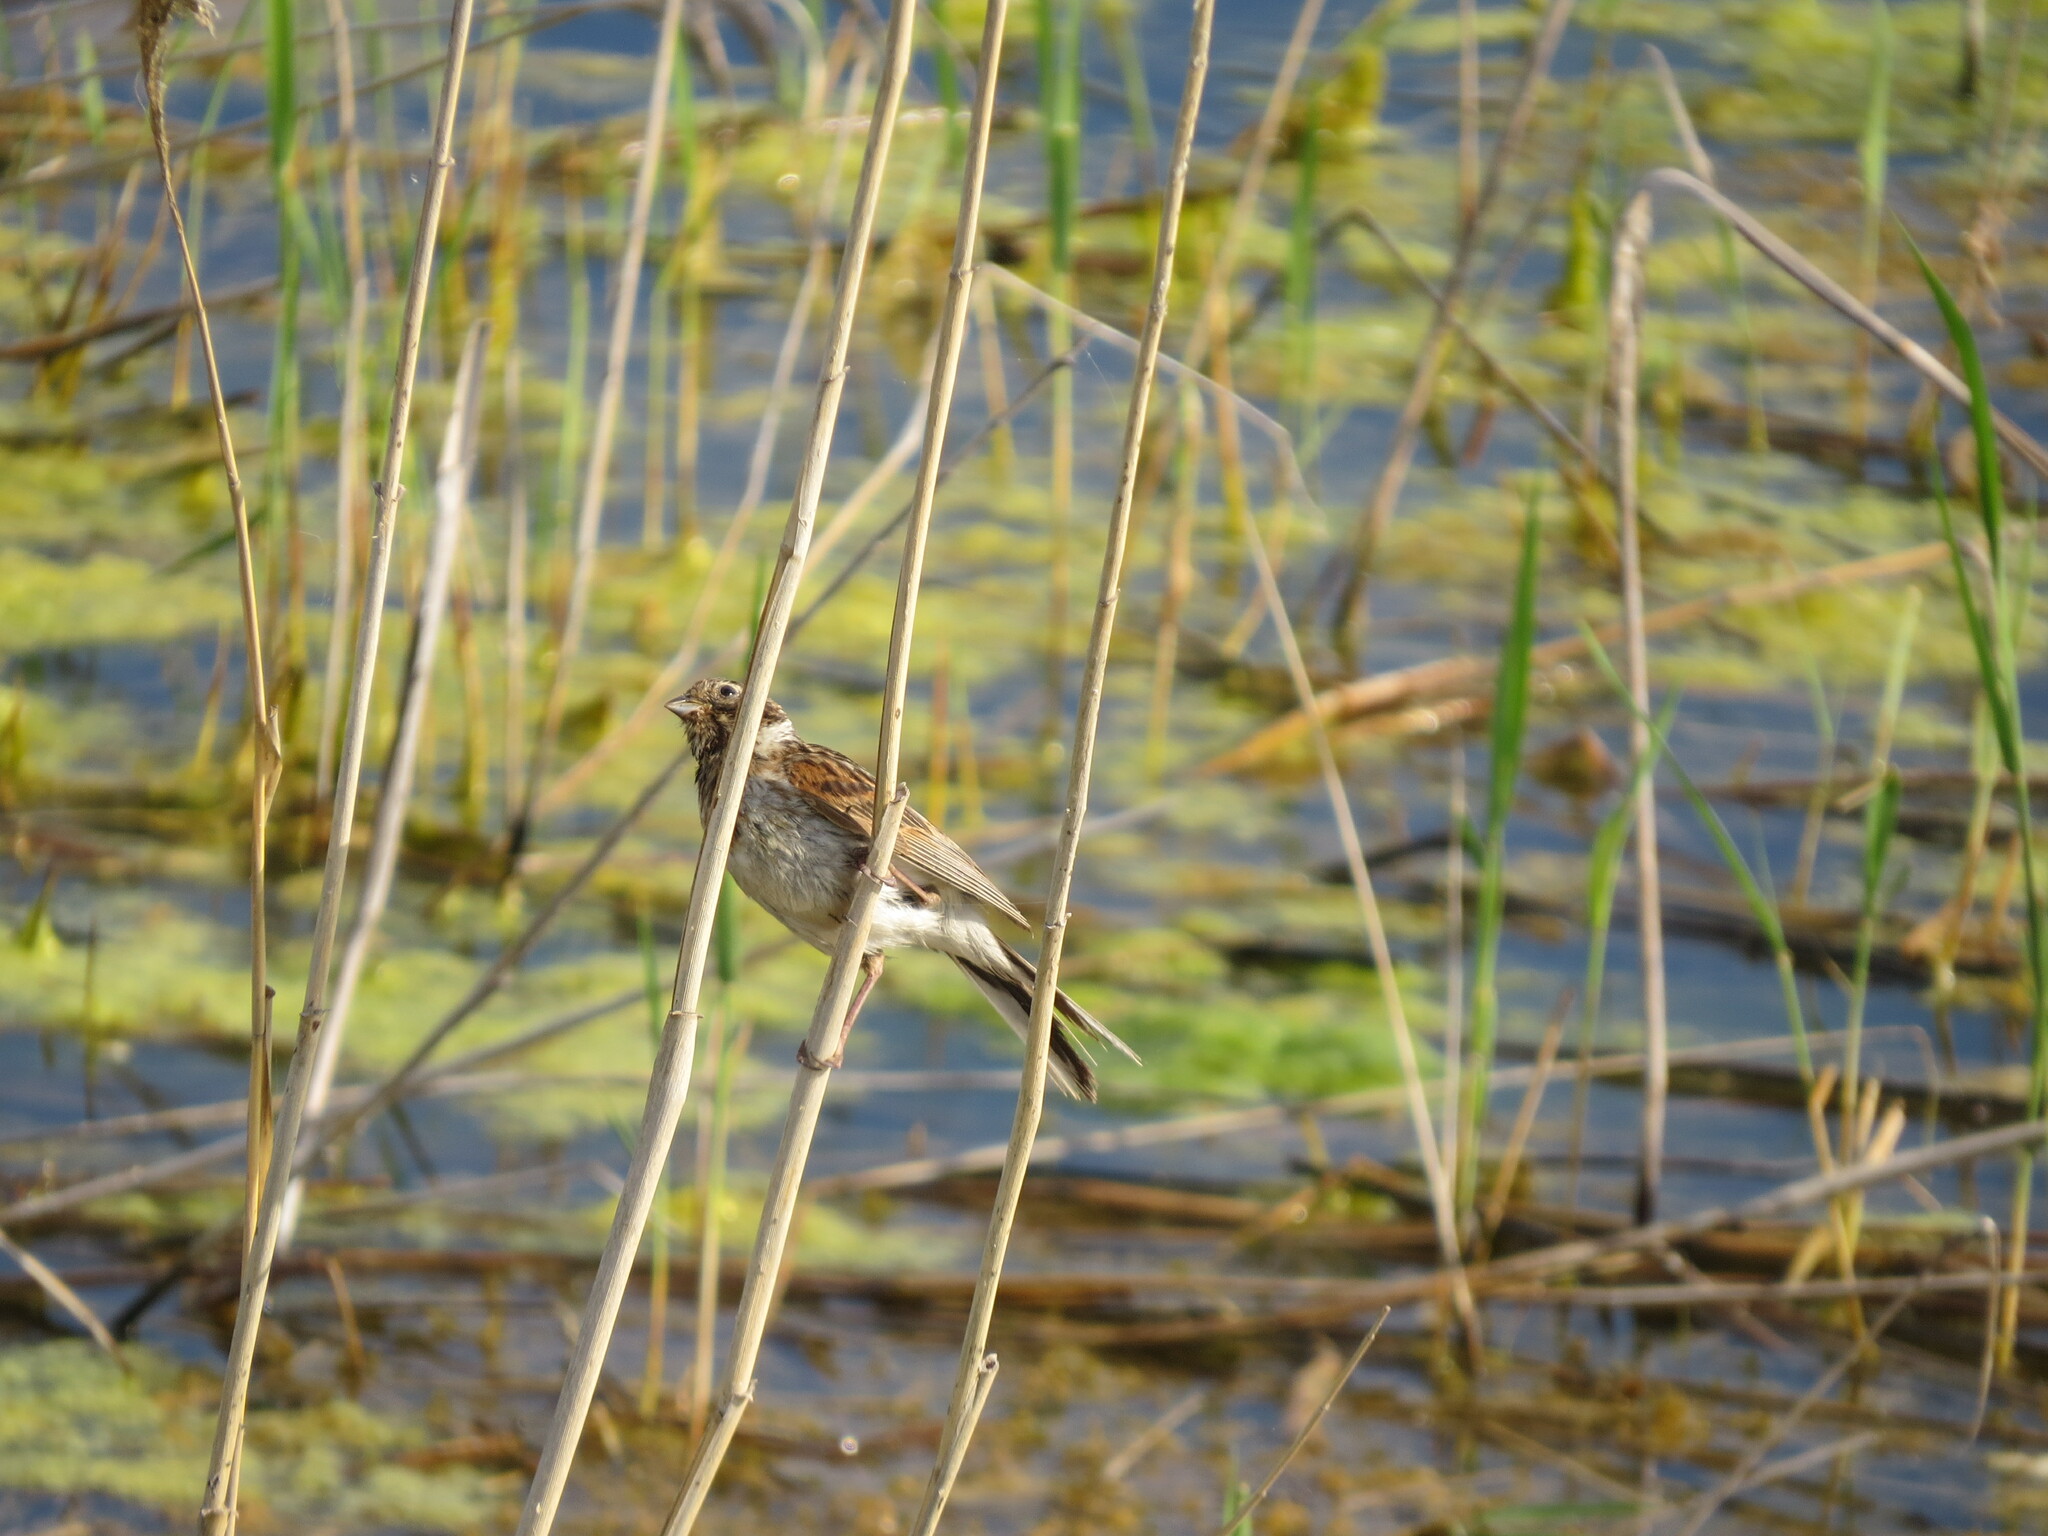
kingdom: Animalia
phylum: Chordata
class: Aves
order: Passeriformes
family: Emberizidae
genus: Emberiza
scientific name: Emberiza schoeniclus
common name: Reed bunting
